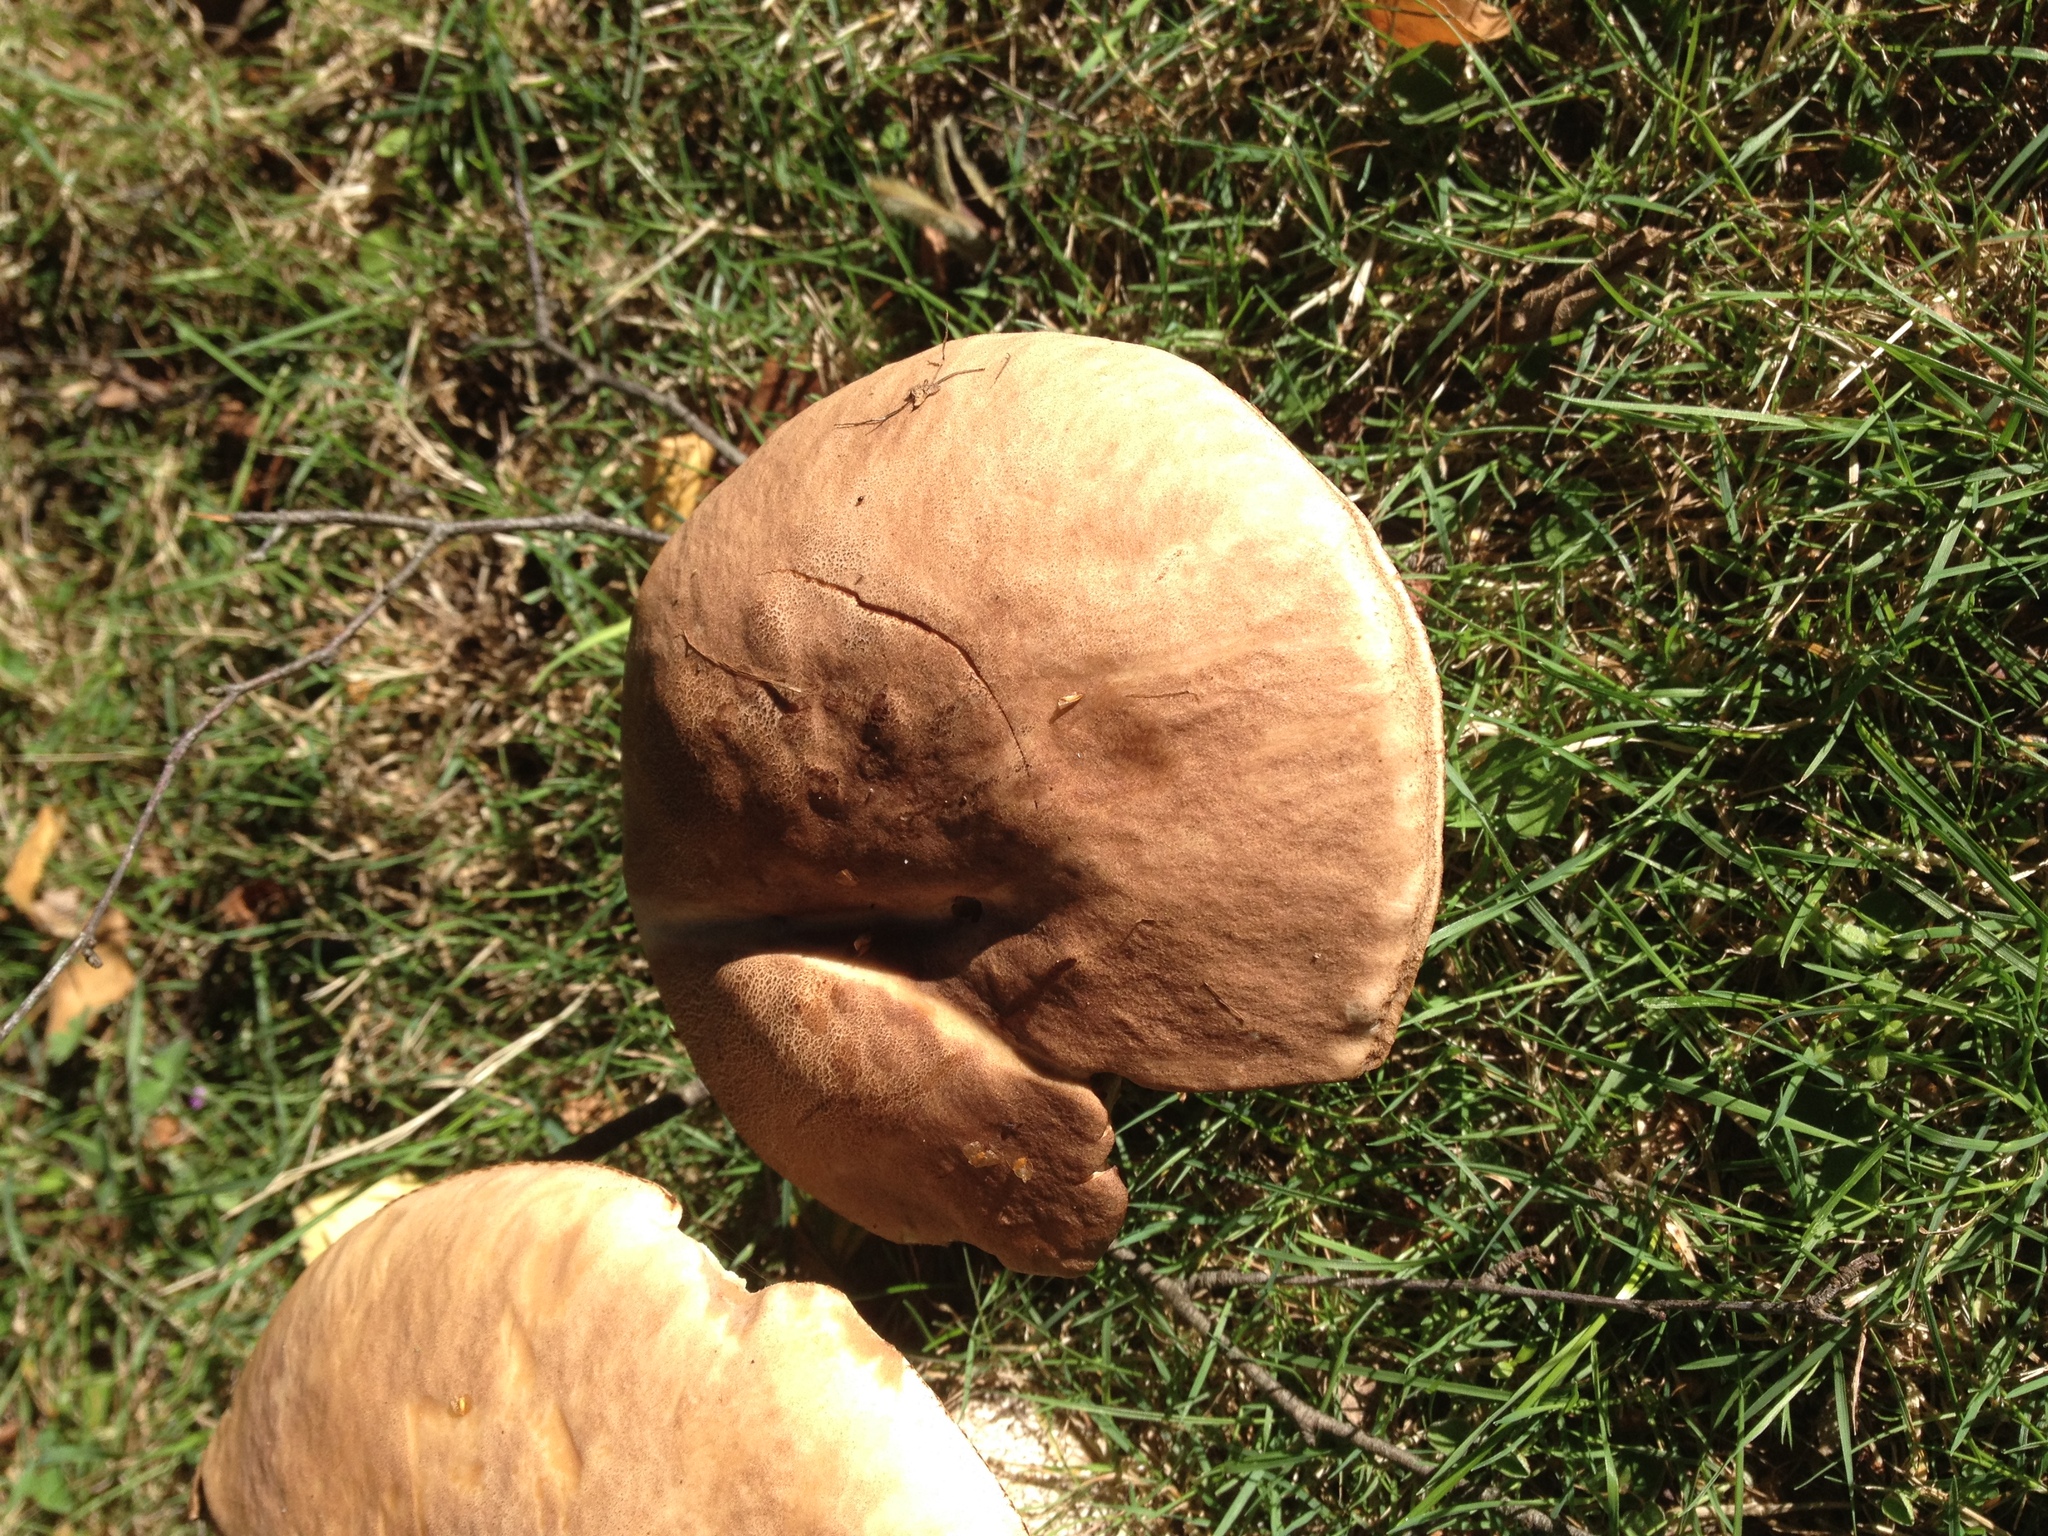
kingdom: Fungi
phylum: Basidiomycota
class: Agaricomycetes
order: Boletales
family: Boletaceae
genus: Leccinum
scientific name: Leccinum scabrum
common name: Blushing bolete
